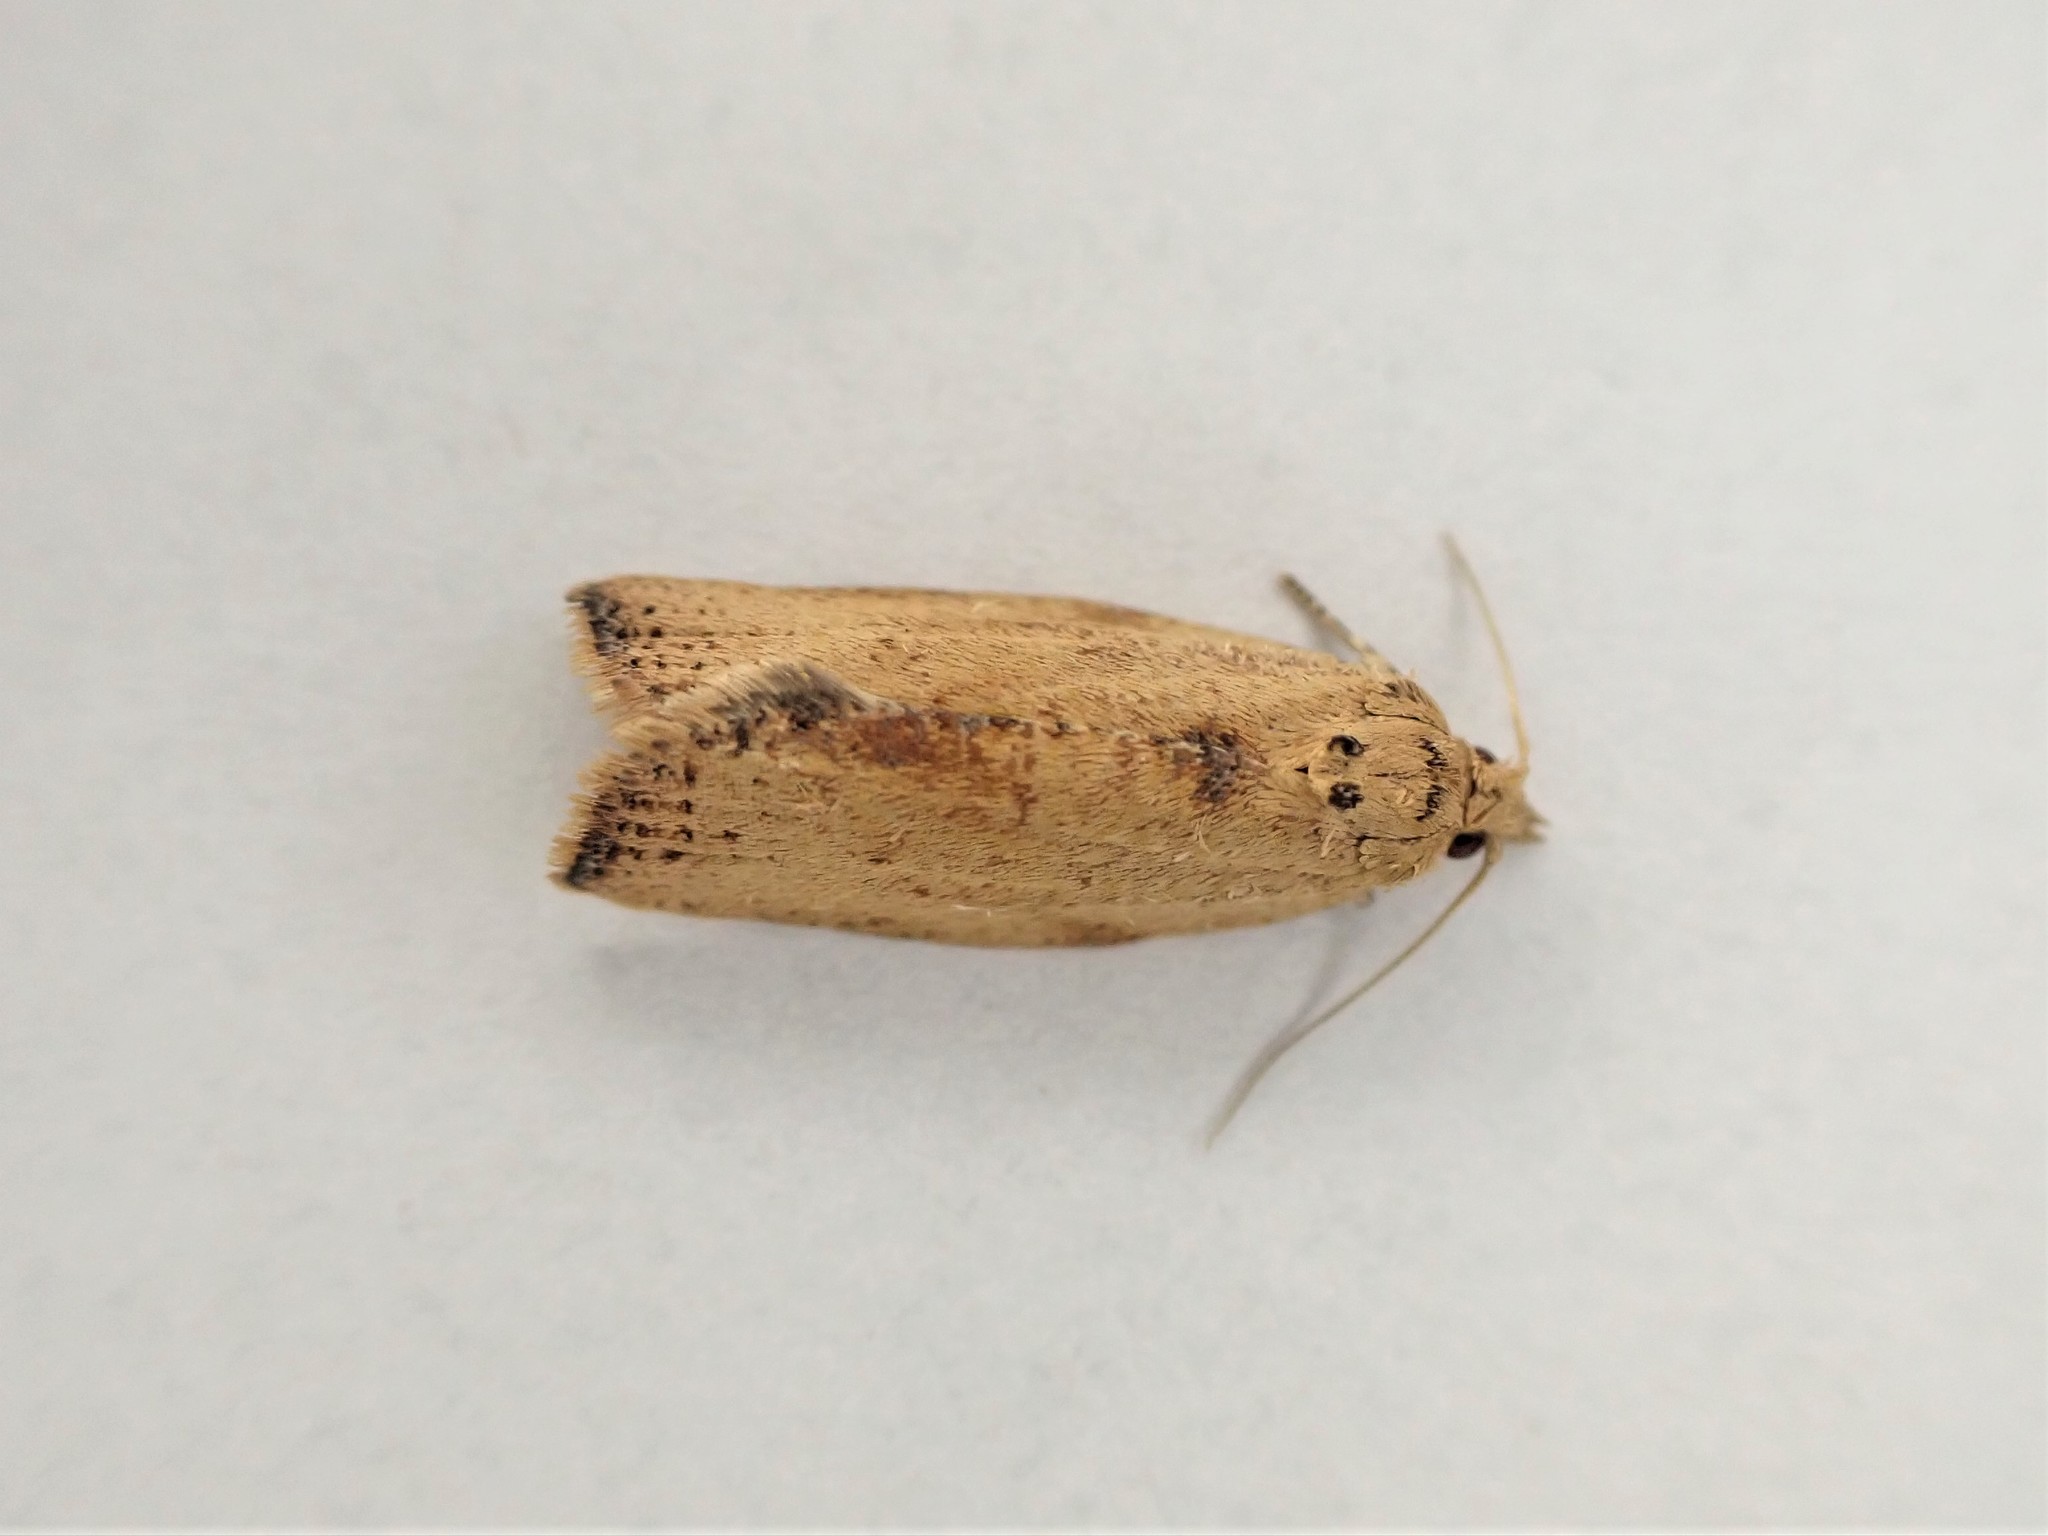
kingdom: Animalia
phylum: Arthropoda
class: Insecta
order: Lepidoptera
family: Tortricidae
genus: Epiphyas
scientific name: Epiphyas postvittana
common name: Light brown apple moth
